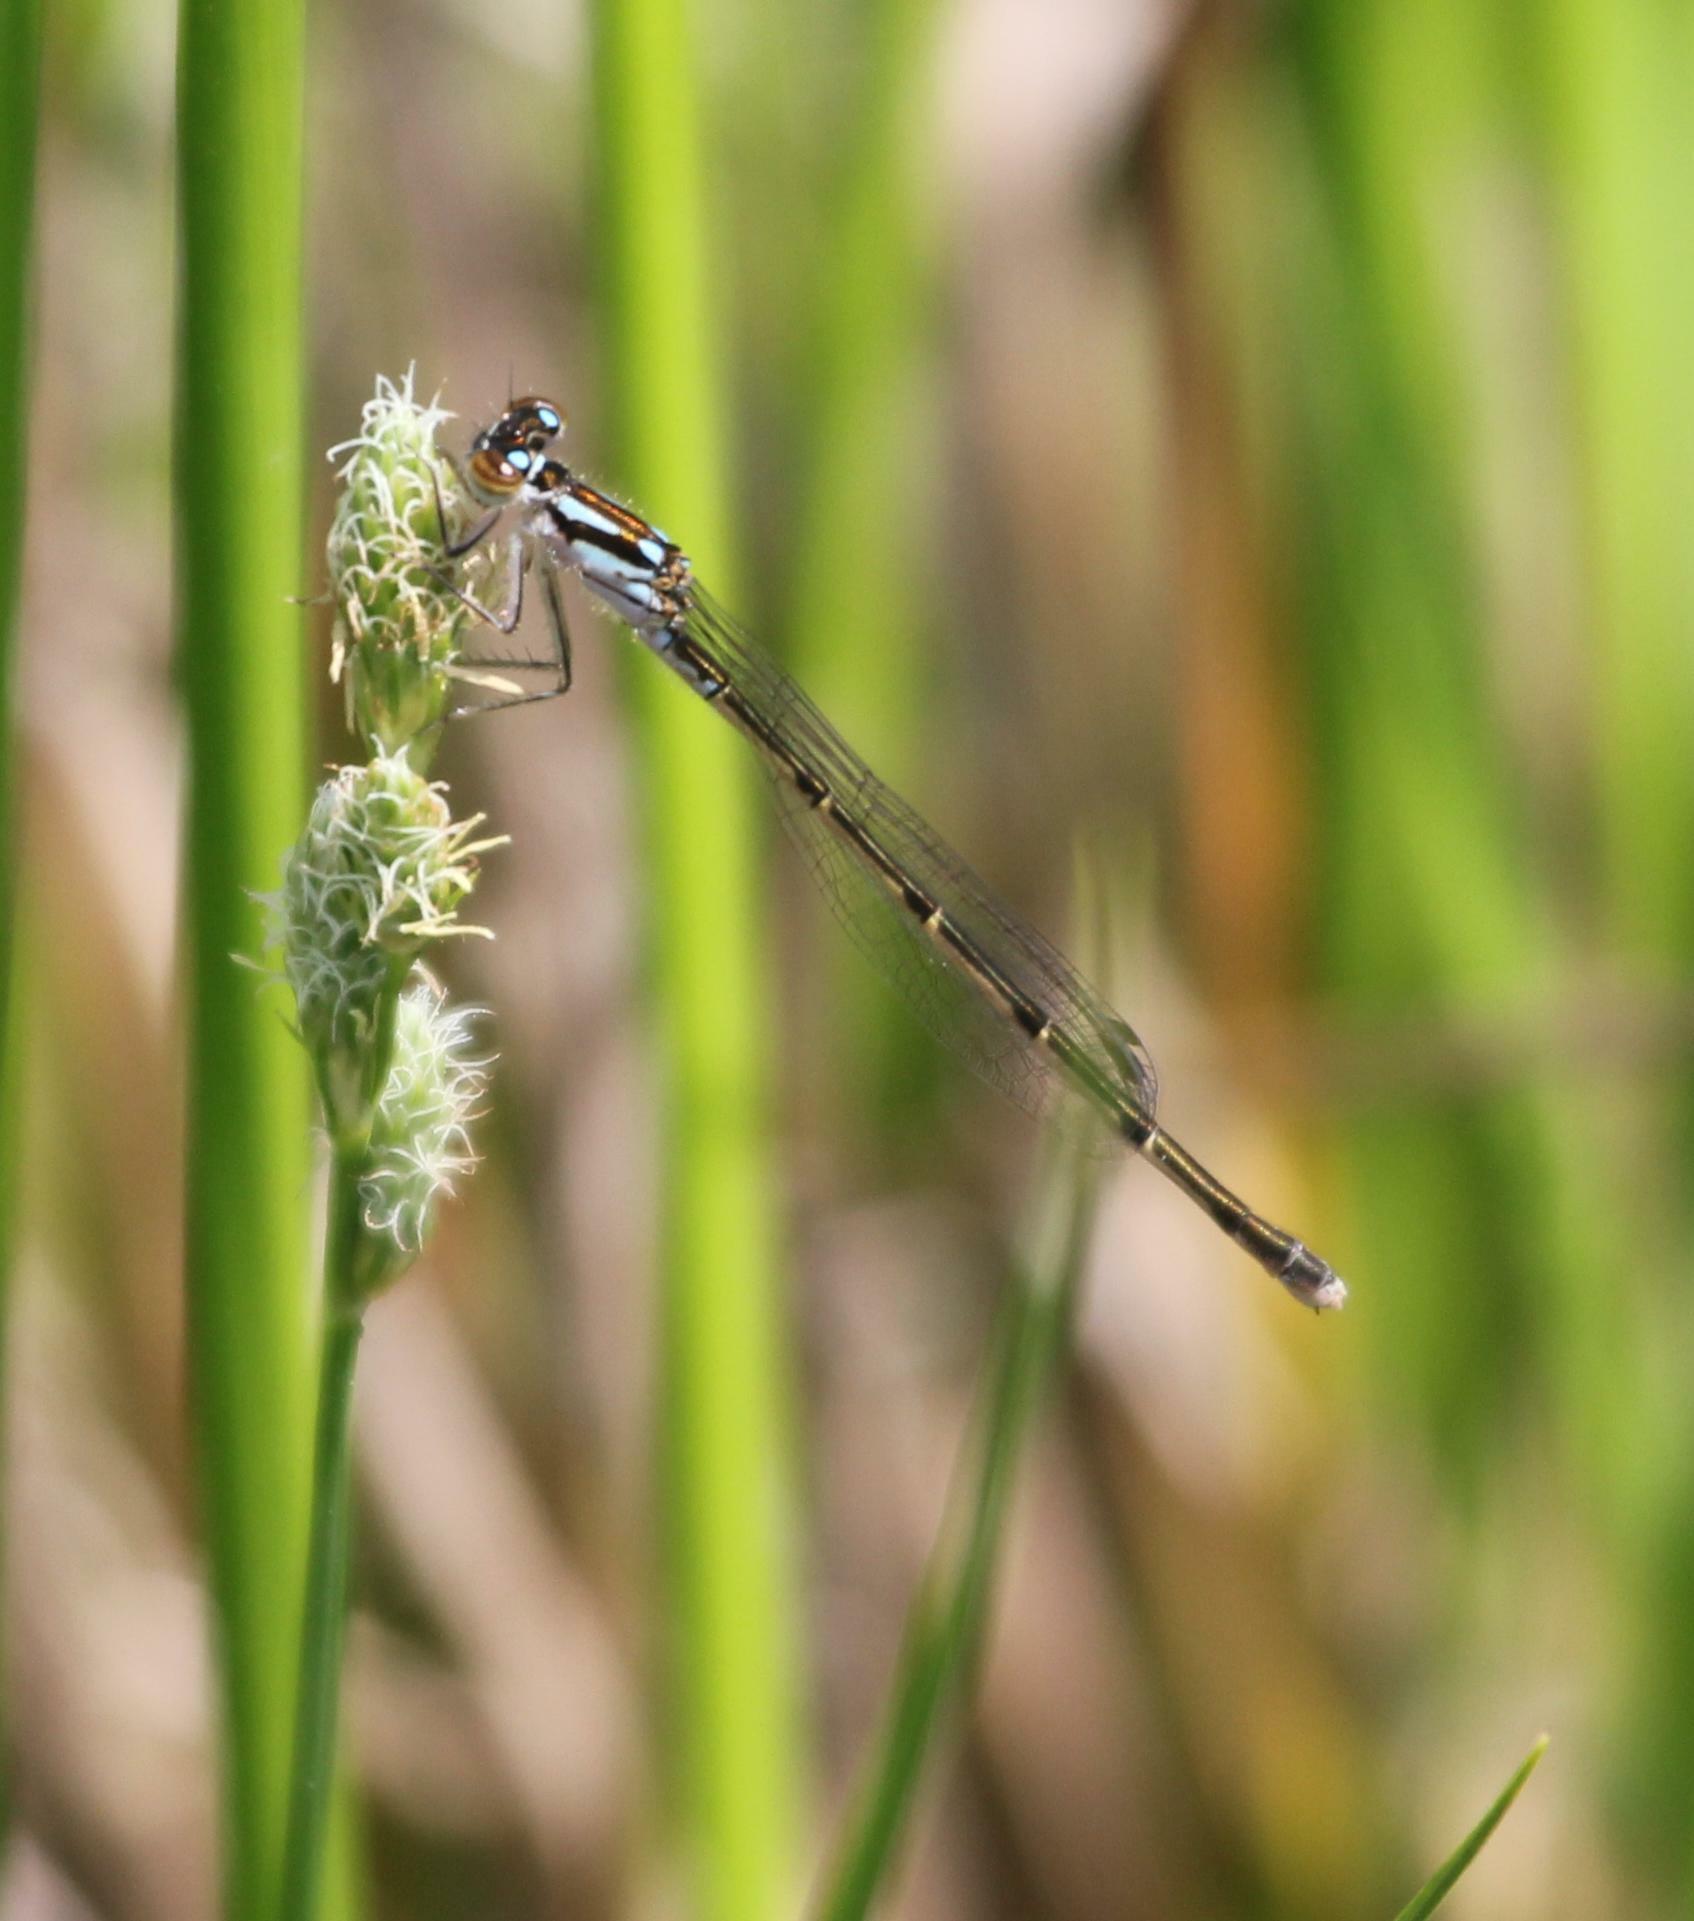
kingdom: Animalia
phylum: Arthropoda
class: Insecta
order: Odonata
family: Coenagrionidae
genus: Ischnura
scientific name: Ischnura posita
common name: Fragile forktail
